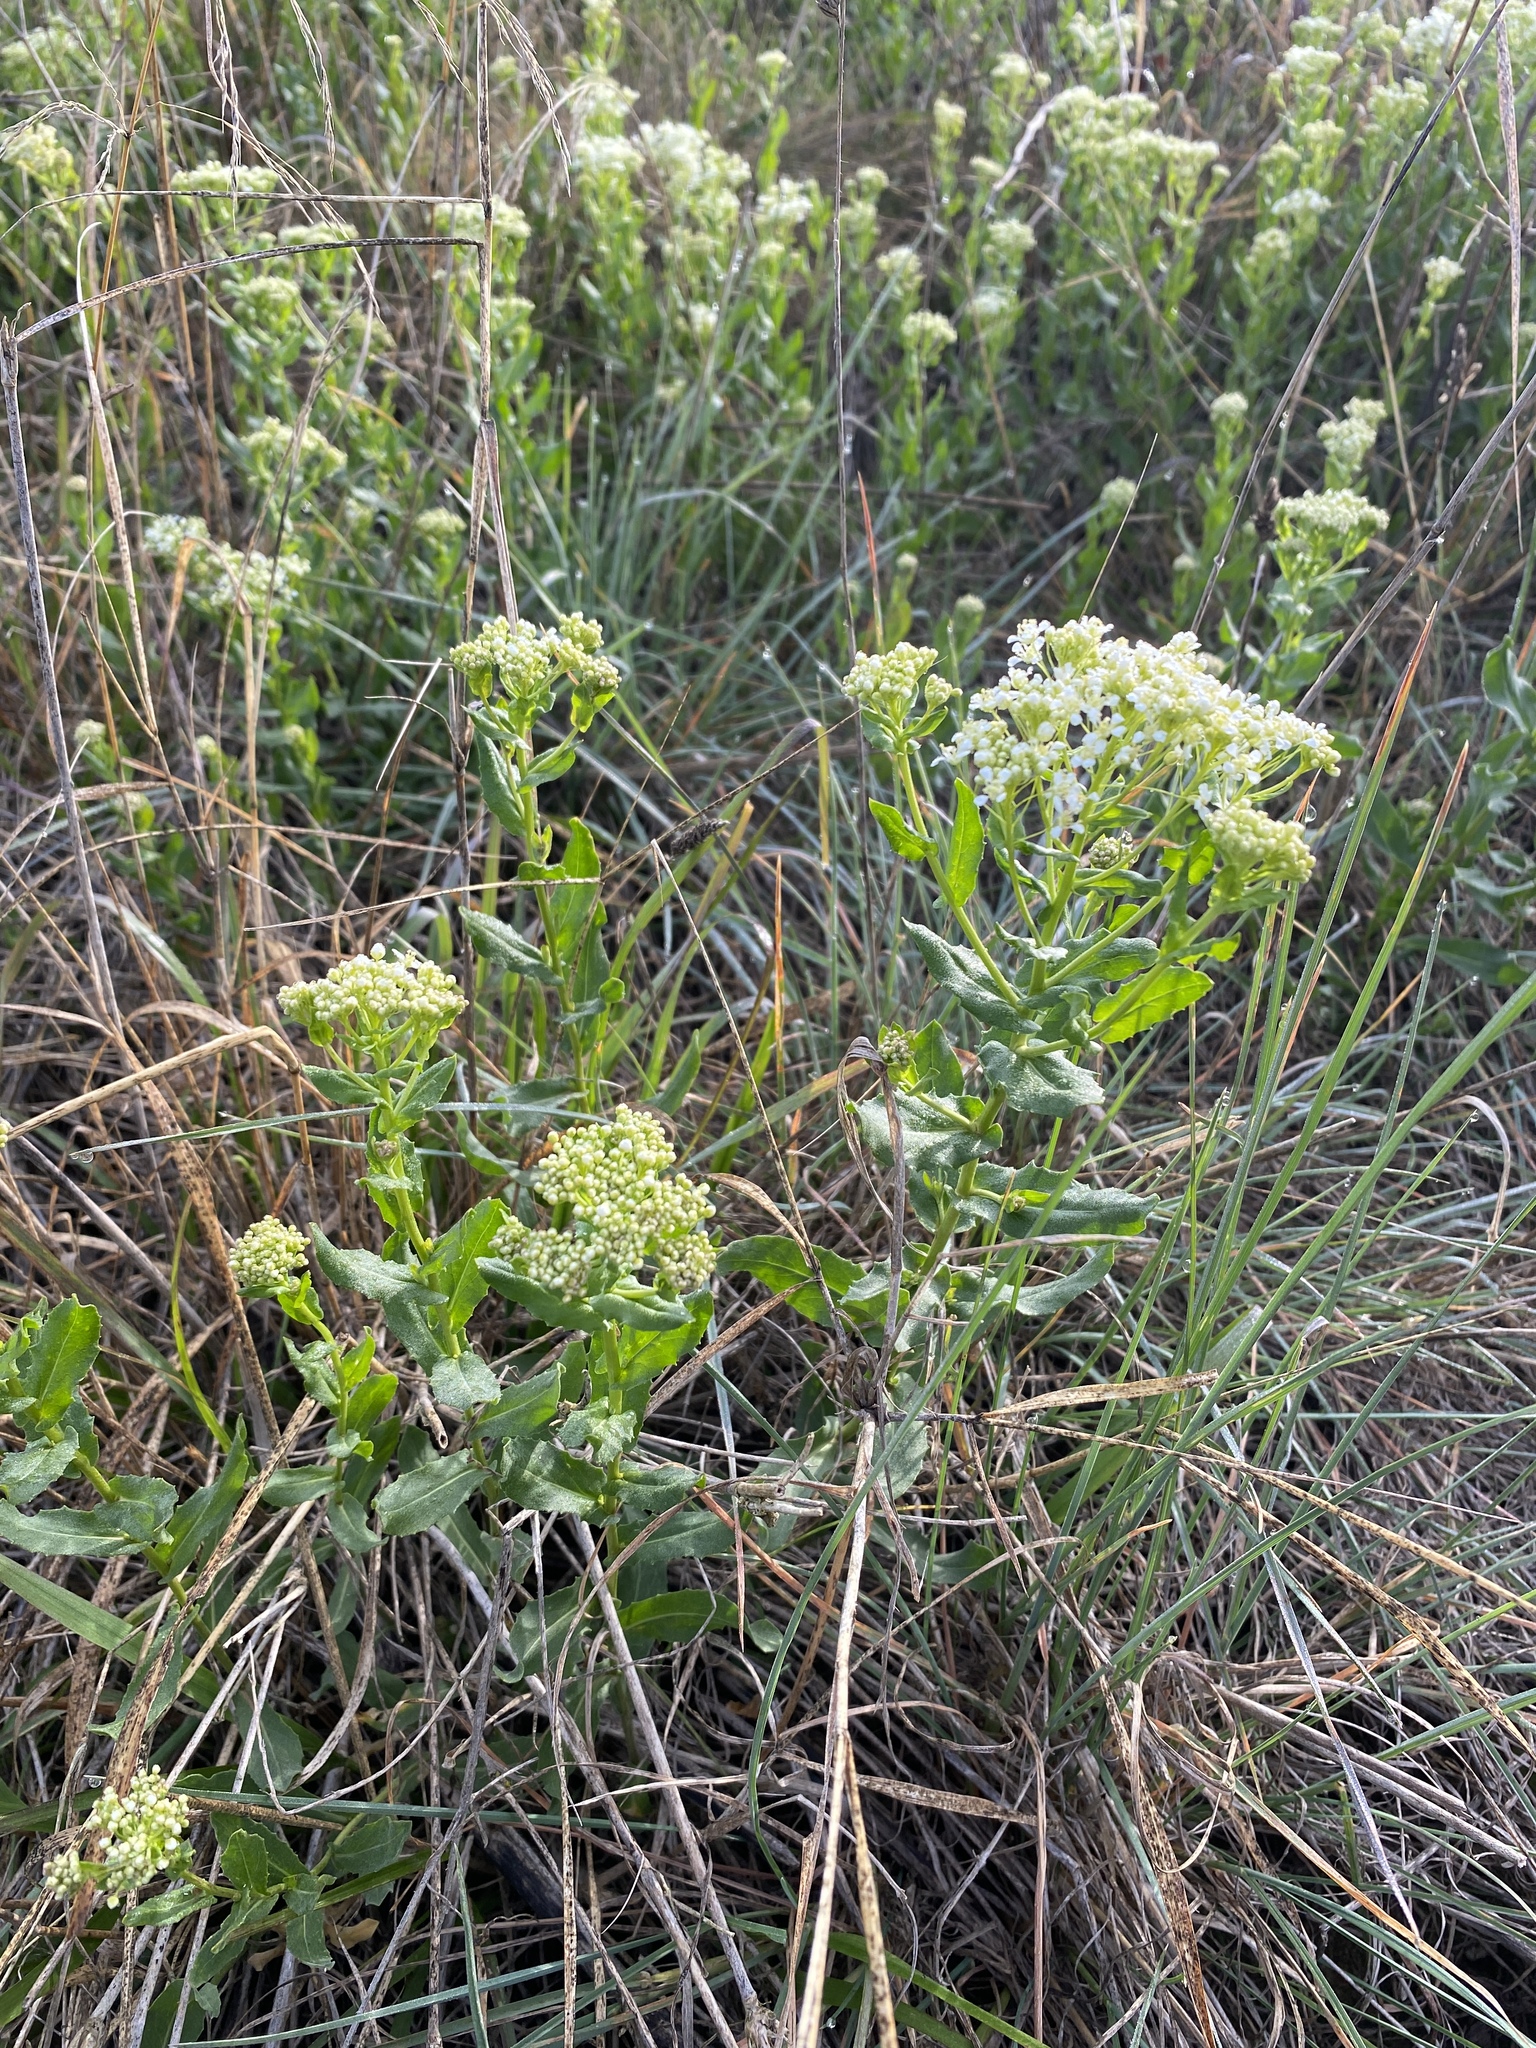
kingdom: Plantae
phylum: Tracheophyta
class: Magnoliopsida
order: Brassicales
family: Brassicaceae
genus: Lepidium
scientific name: Lepidium draba
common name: Hoary cress
